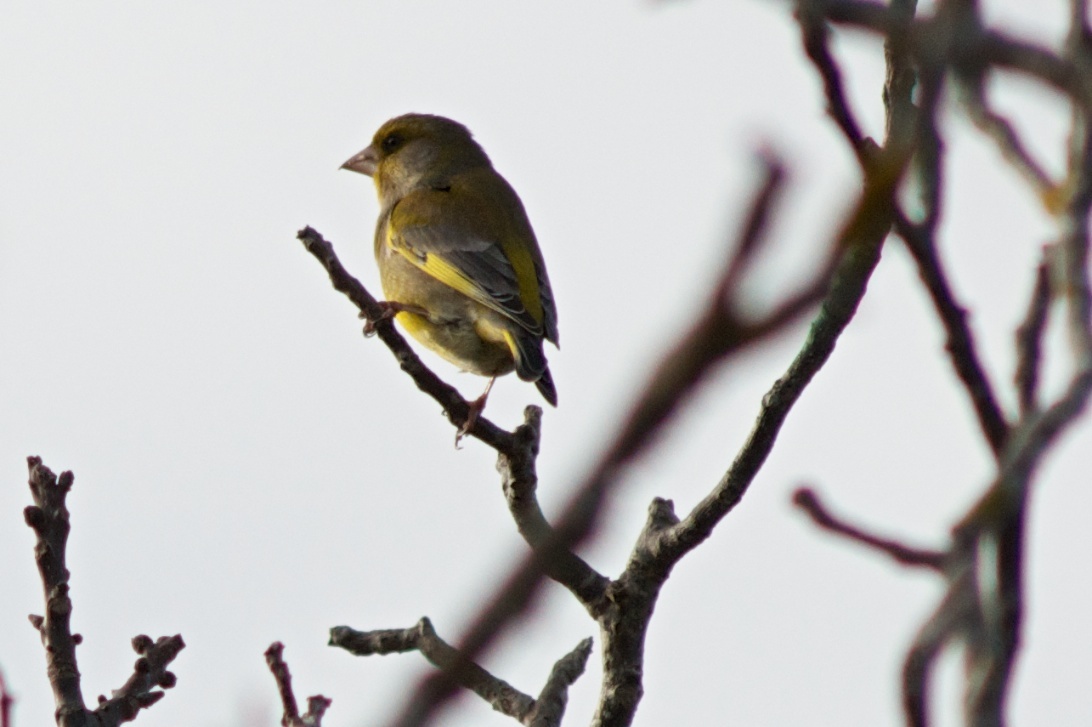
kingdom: Plantae
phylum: Tracheophyta
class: Liliopsida
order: Poales
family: Poaceae
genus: Chloris
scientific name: Chloris chloris
